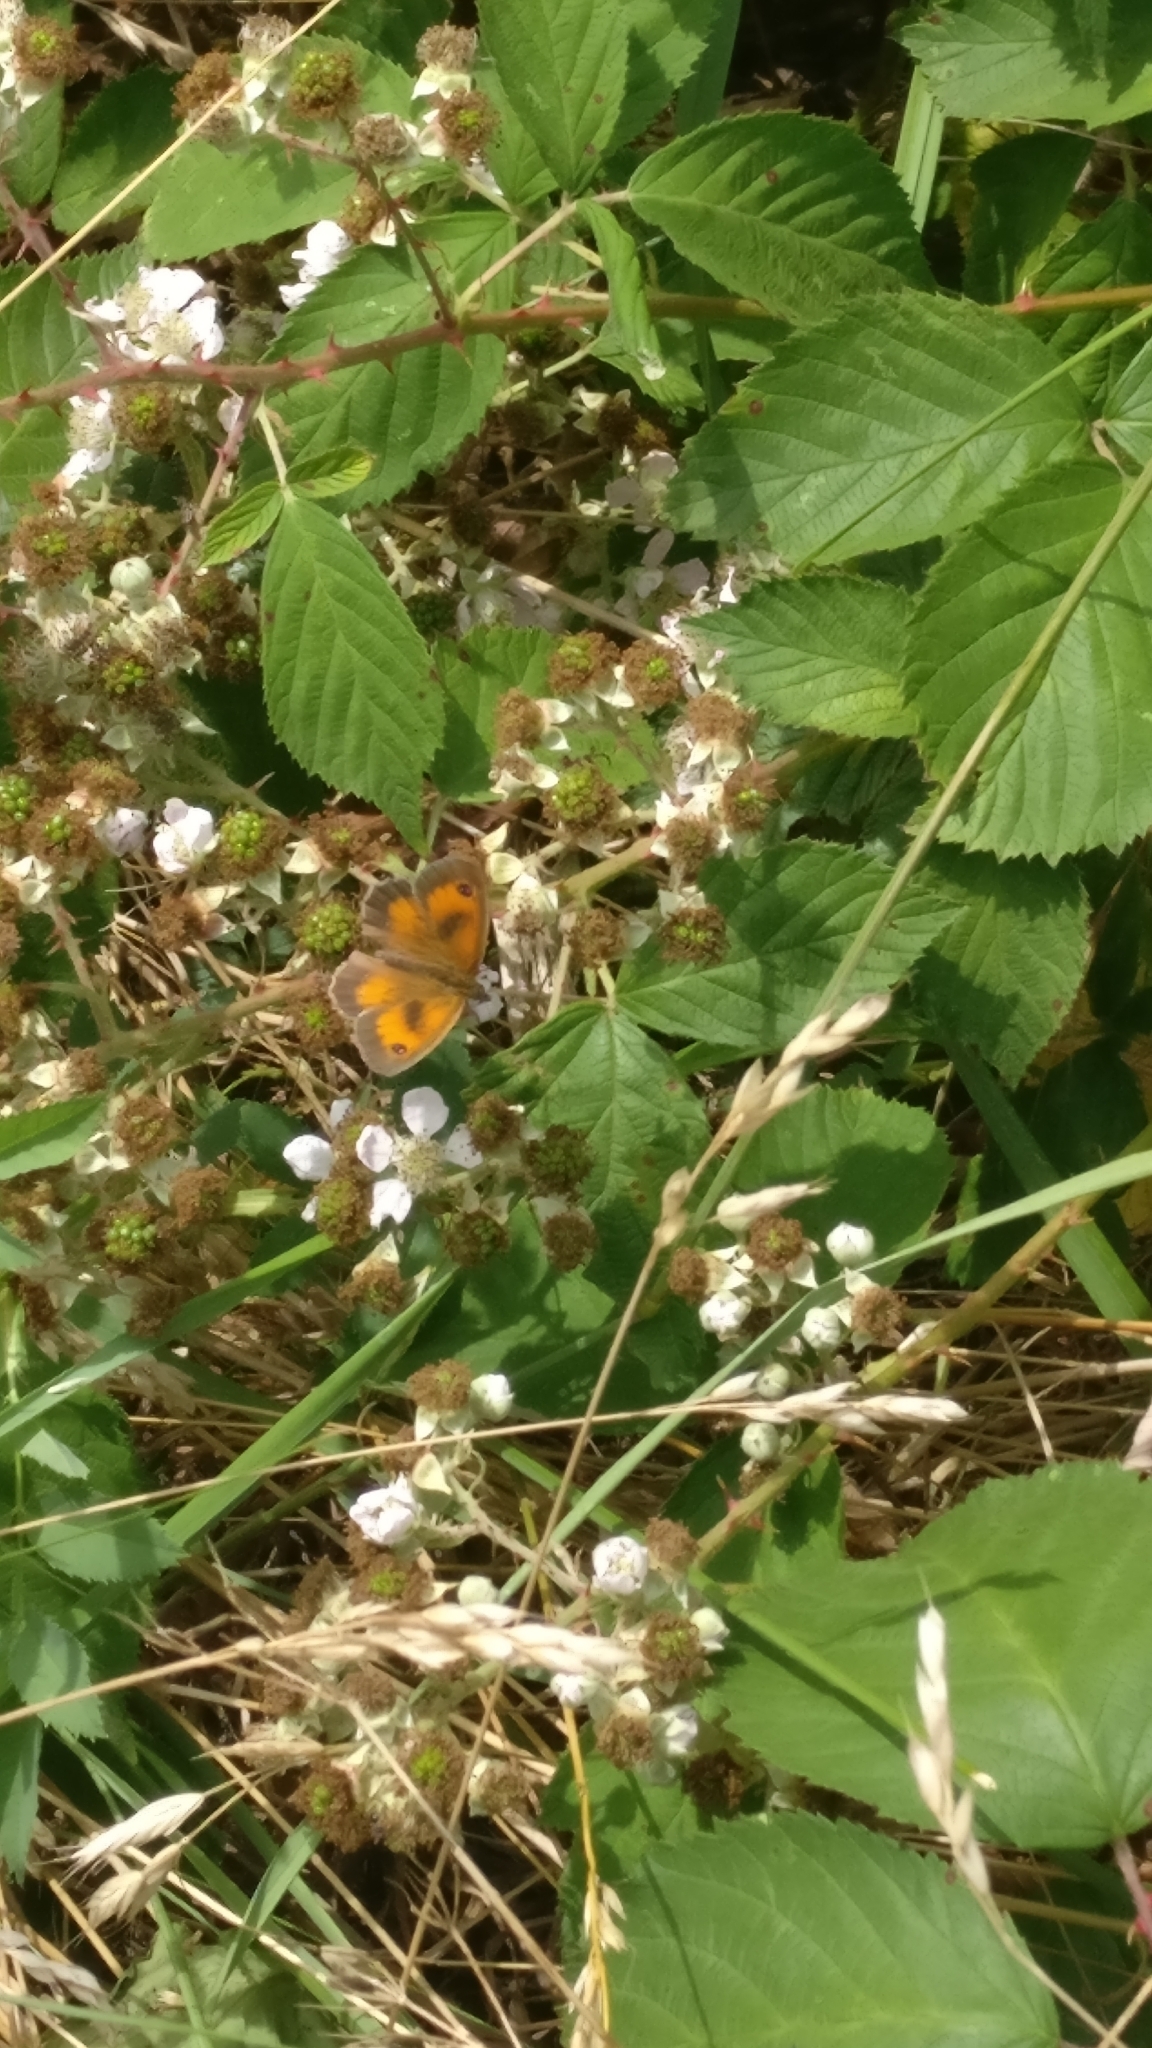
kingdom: Animalia
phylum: Arthropoda
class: Insecta
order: Lepidoptera
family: Nymphalidae
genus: Pyronia
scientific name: Pyronia tithonus
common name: Gatekeeper
